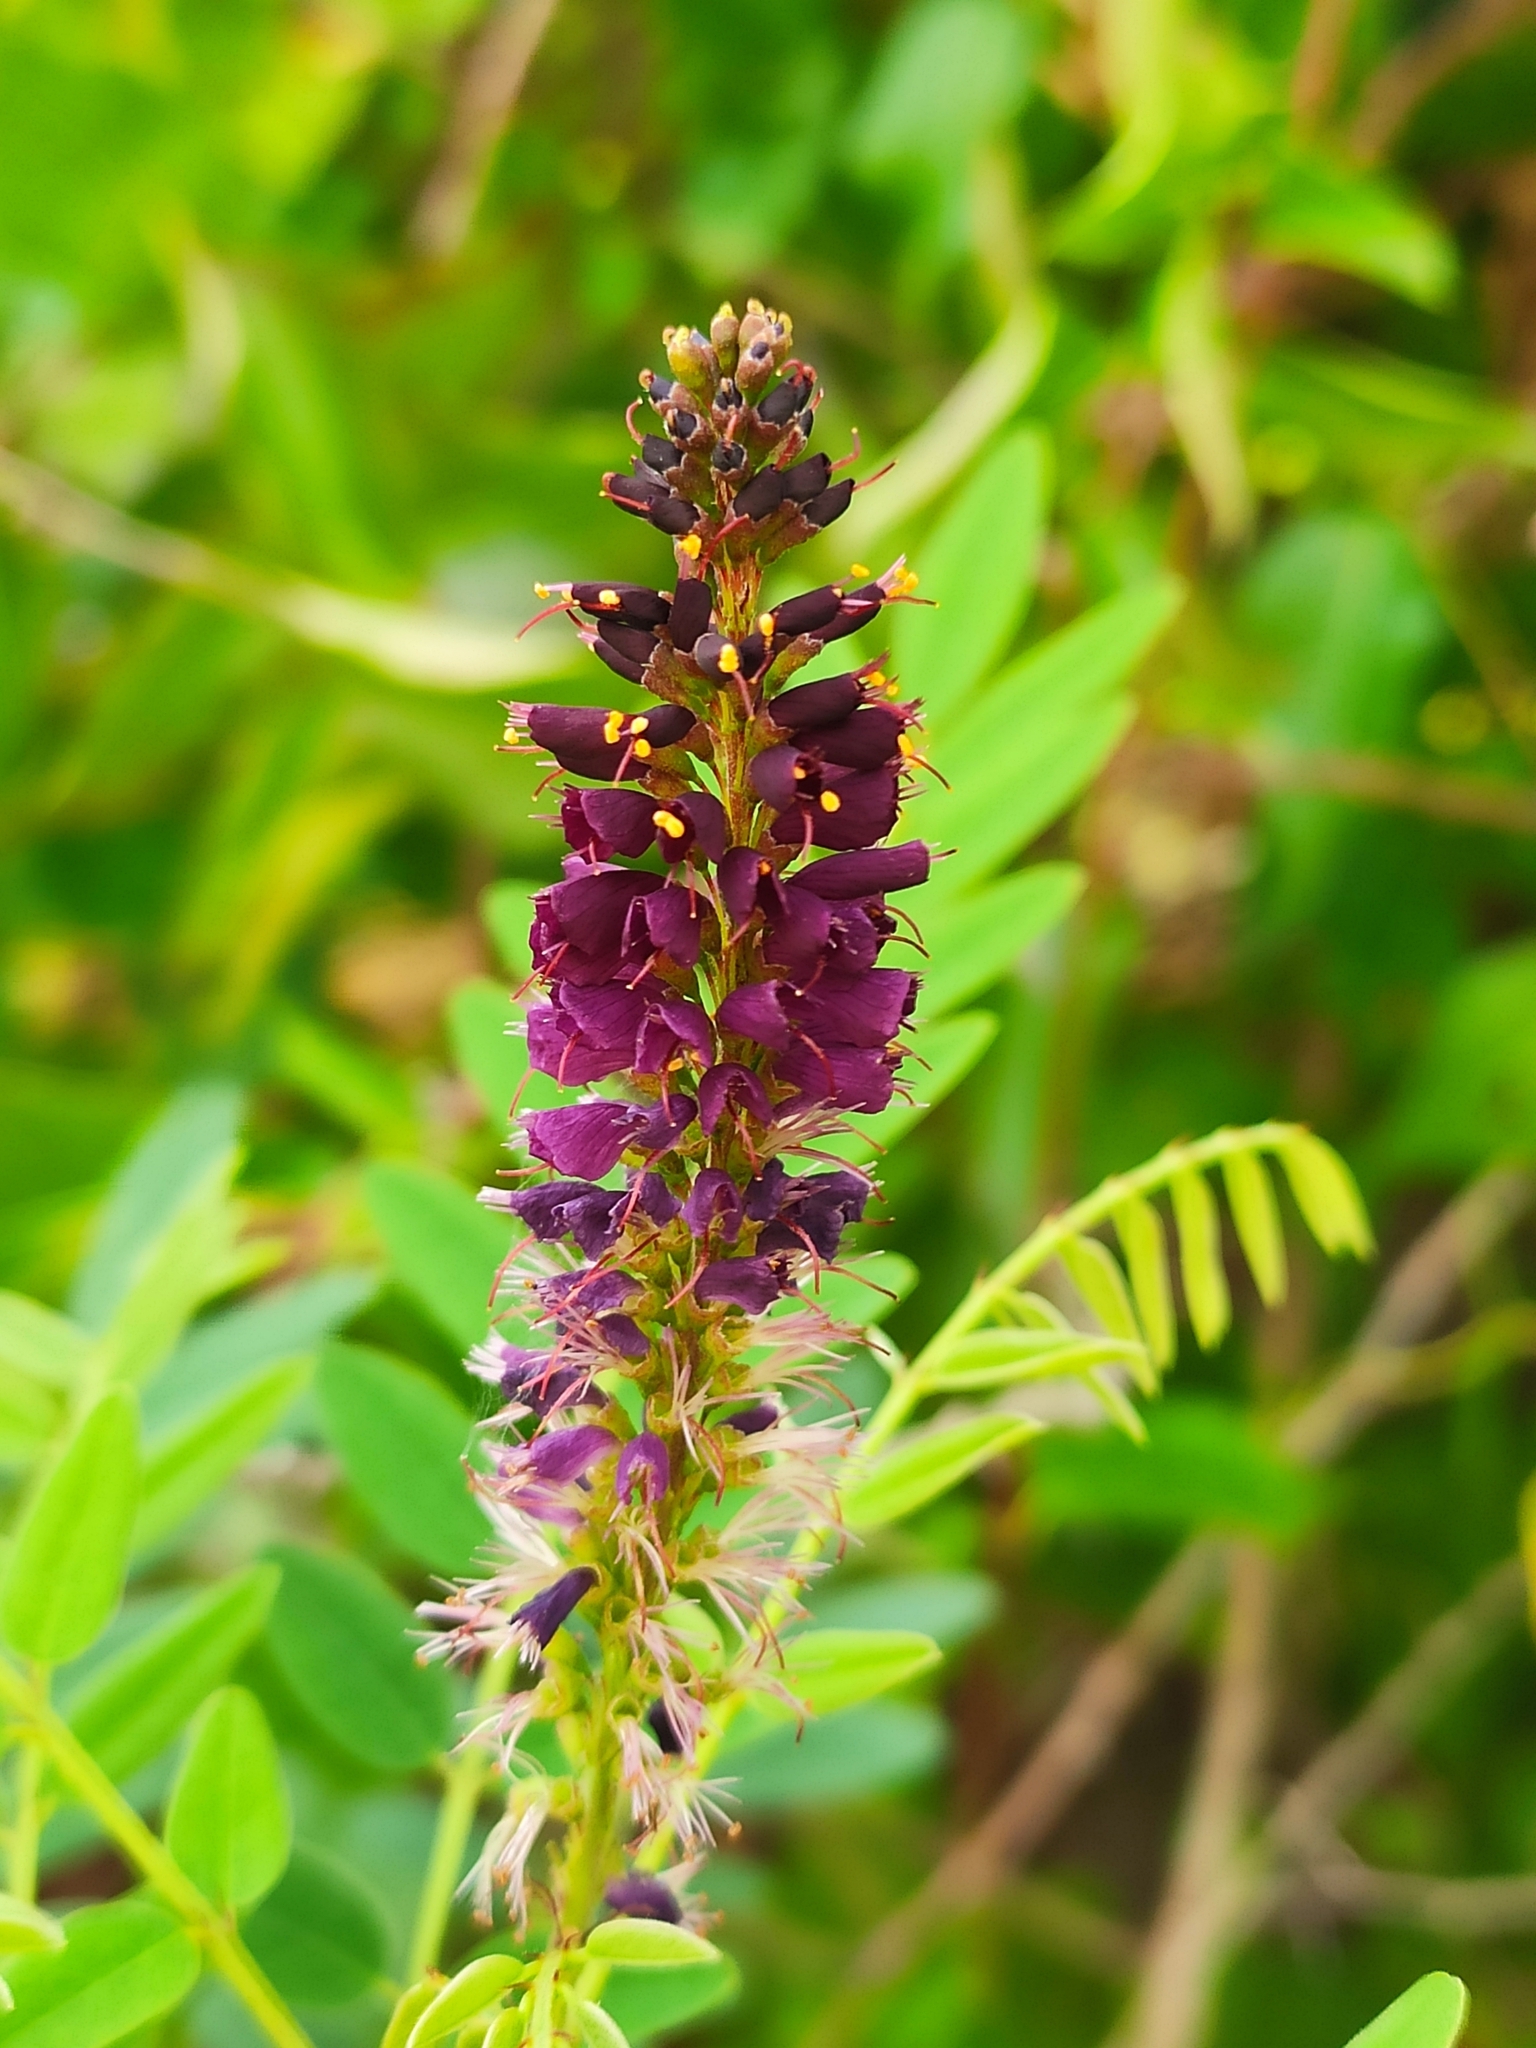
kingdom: Plantae
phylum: Tracheophyta
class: Magnoliopsida
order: Fabales
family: Fabaceae
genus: Amorpha
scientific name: Amorpha fruticosa
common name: False indigo
